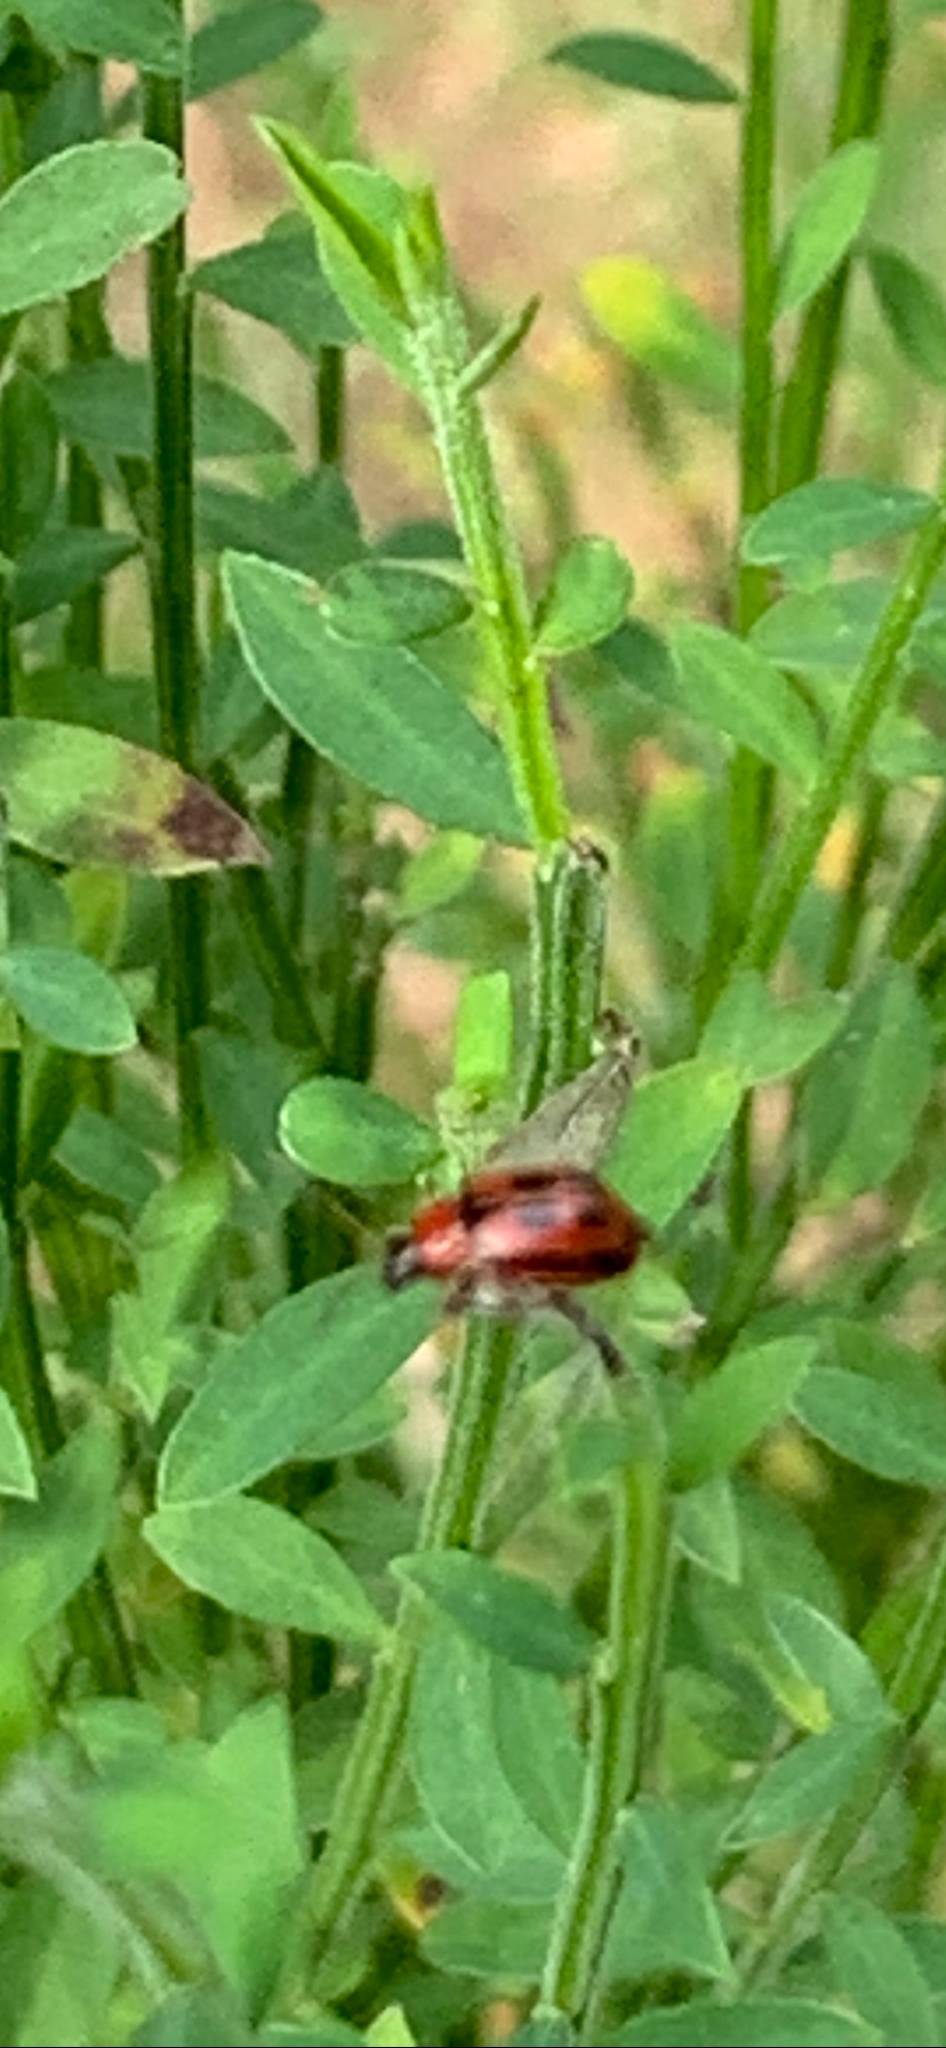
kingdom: Animalia
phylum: Arthropoda
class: Insecta
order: Coleoptera
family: Chrysomelidae
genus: Cerotoma
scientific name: Cerotoma trifurcata
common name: Bean leaf beetle
